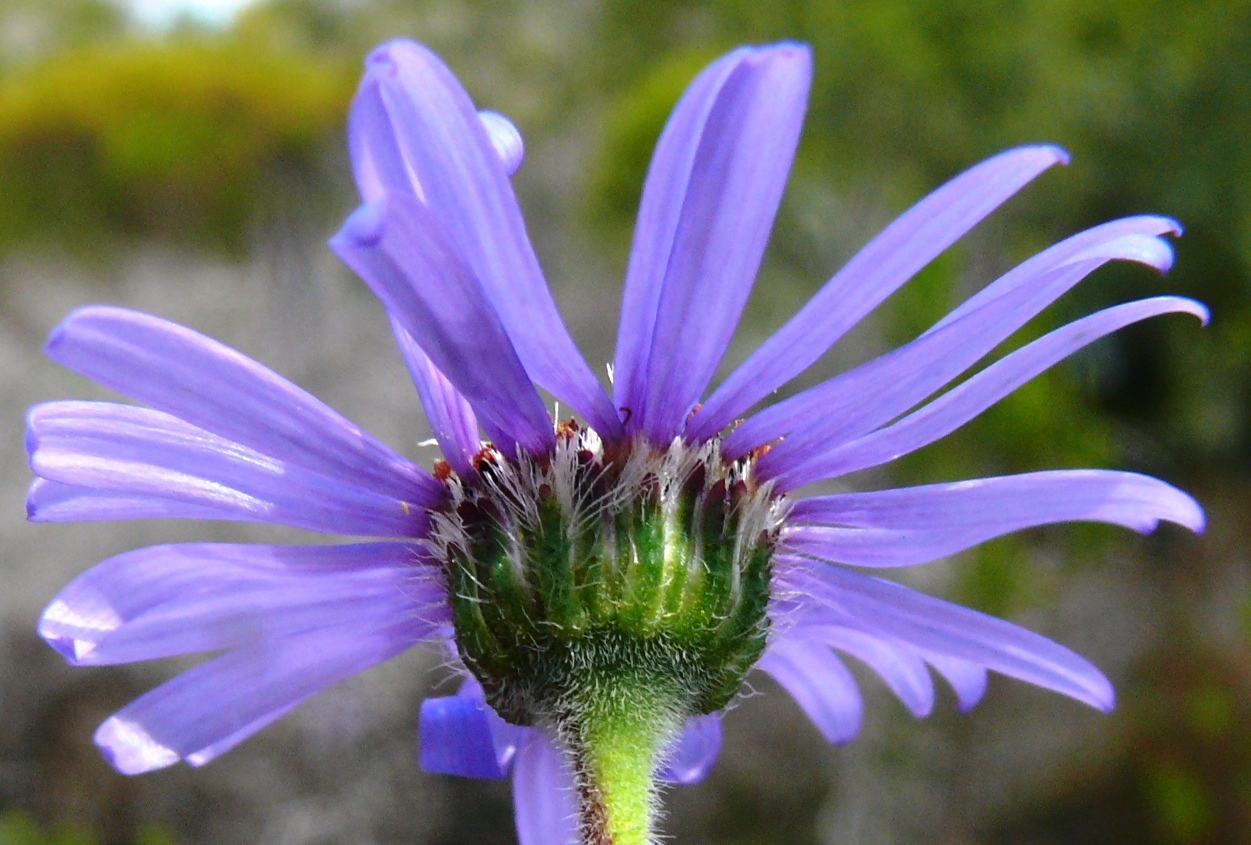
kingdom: Plantae
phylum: Tracheophyta
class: Magnoliopsida
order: Asterales
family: Asteraceae
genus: Felicia
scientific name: Felicia amoena
